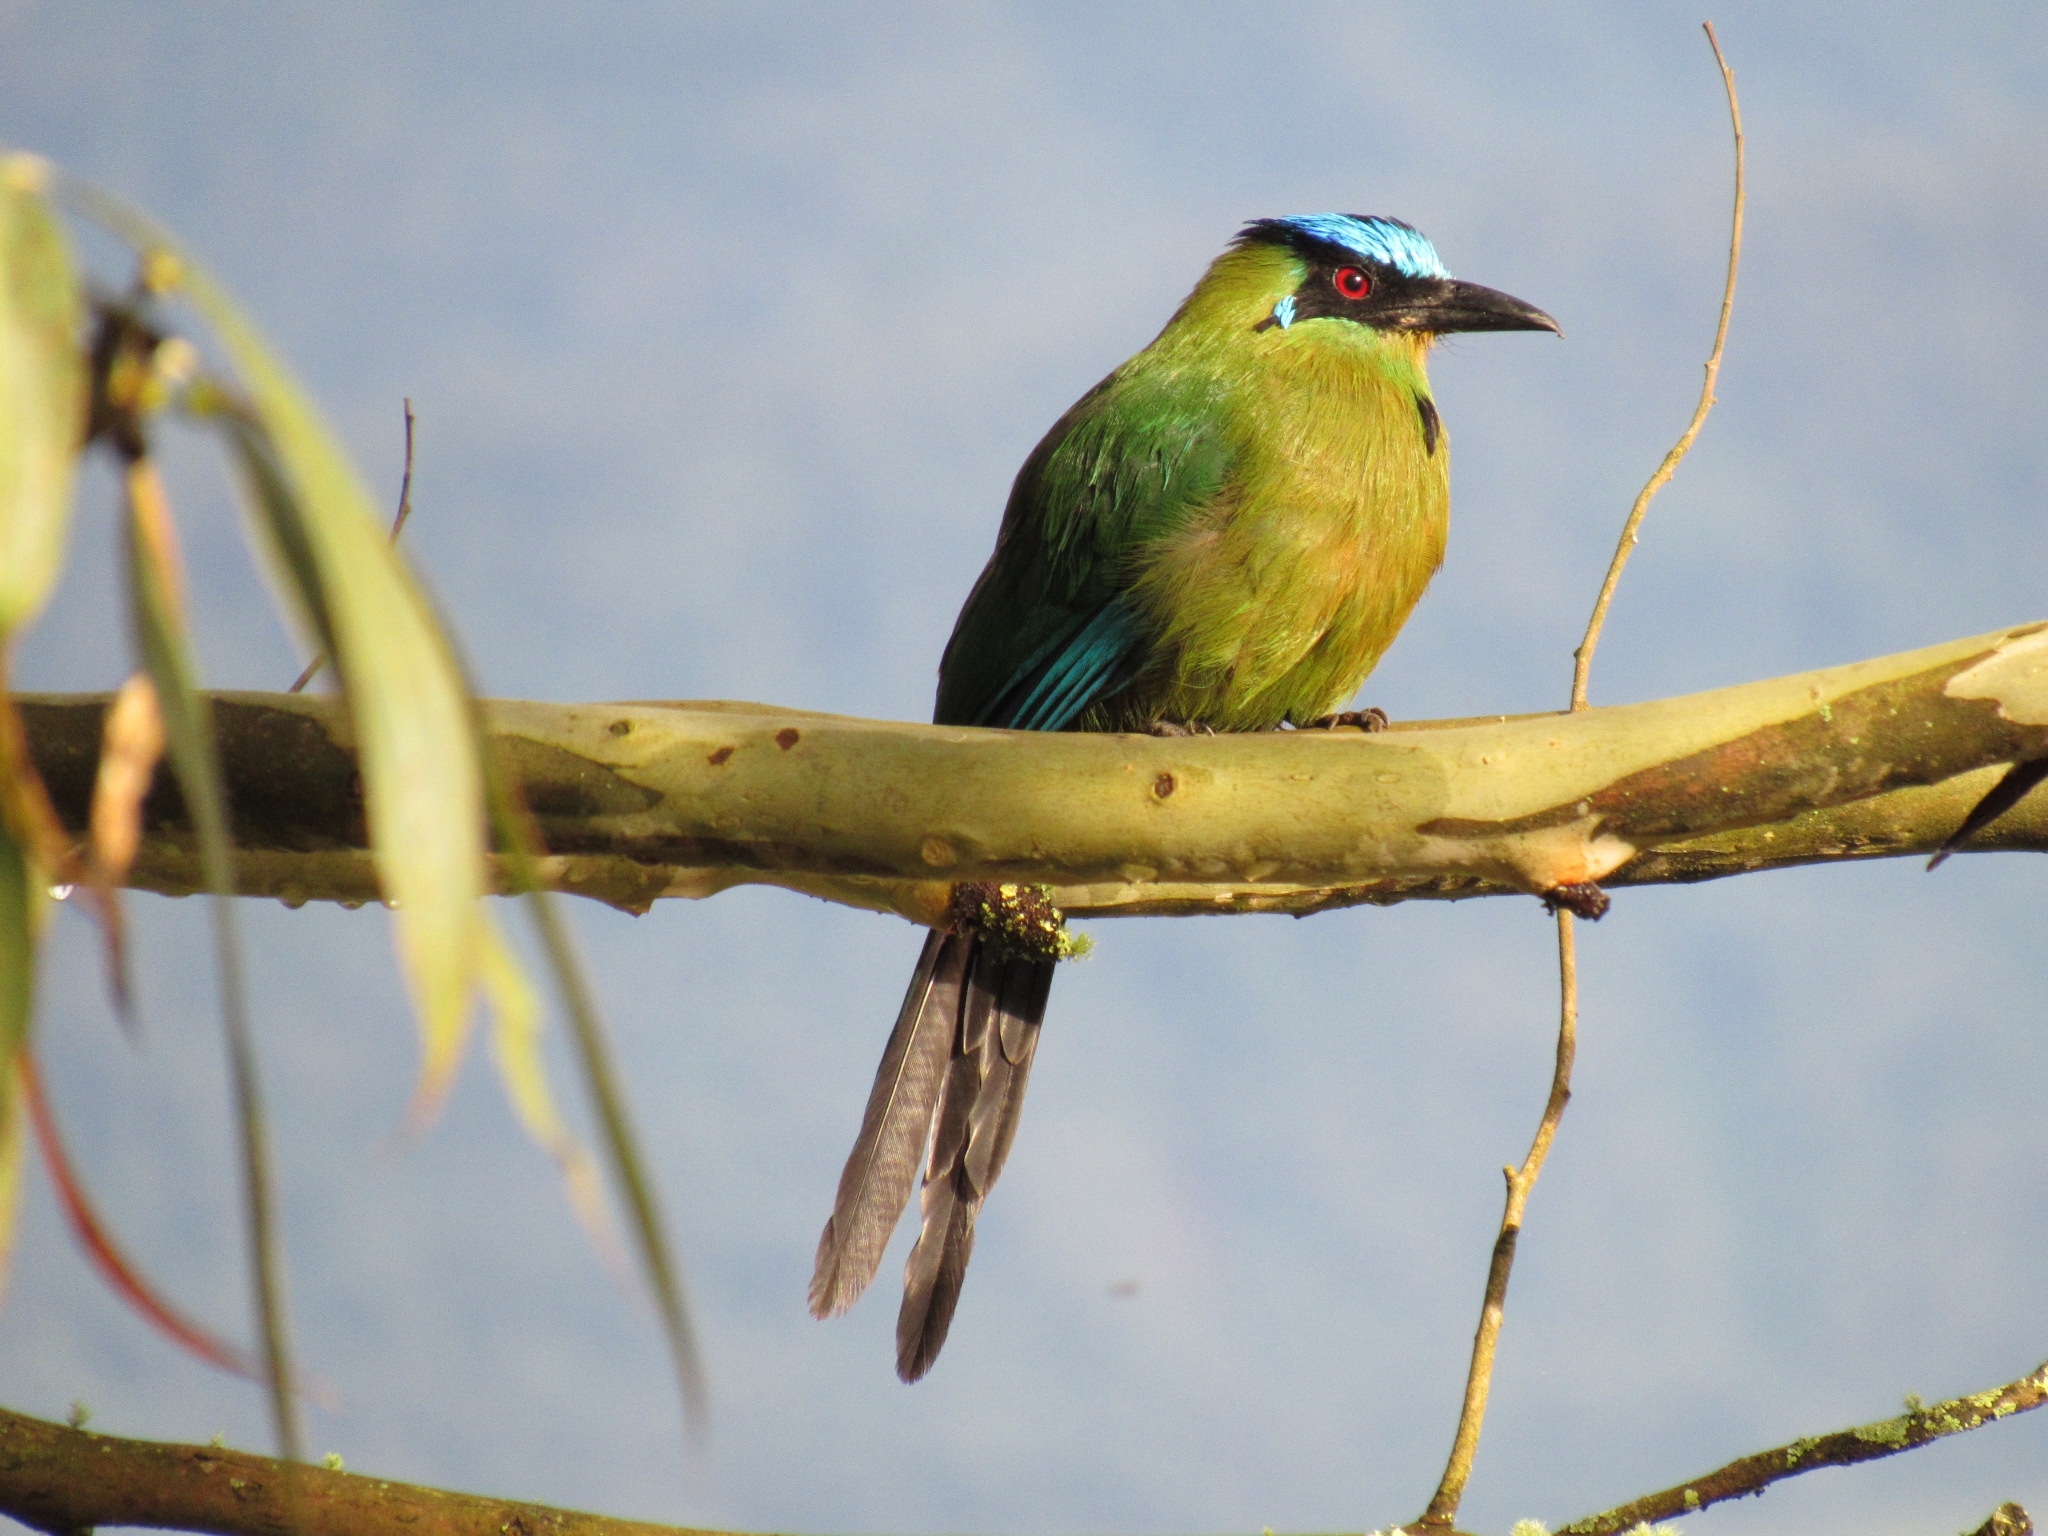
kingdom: Animalia
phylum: Chordata
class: Aves
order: Coraciiformes
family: Momotidae
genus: Momotus
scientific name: Momotus aequatorialis
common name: Andean motmot
